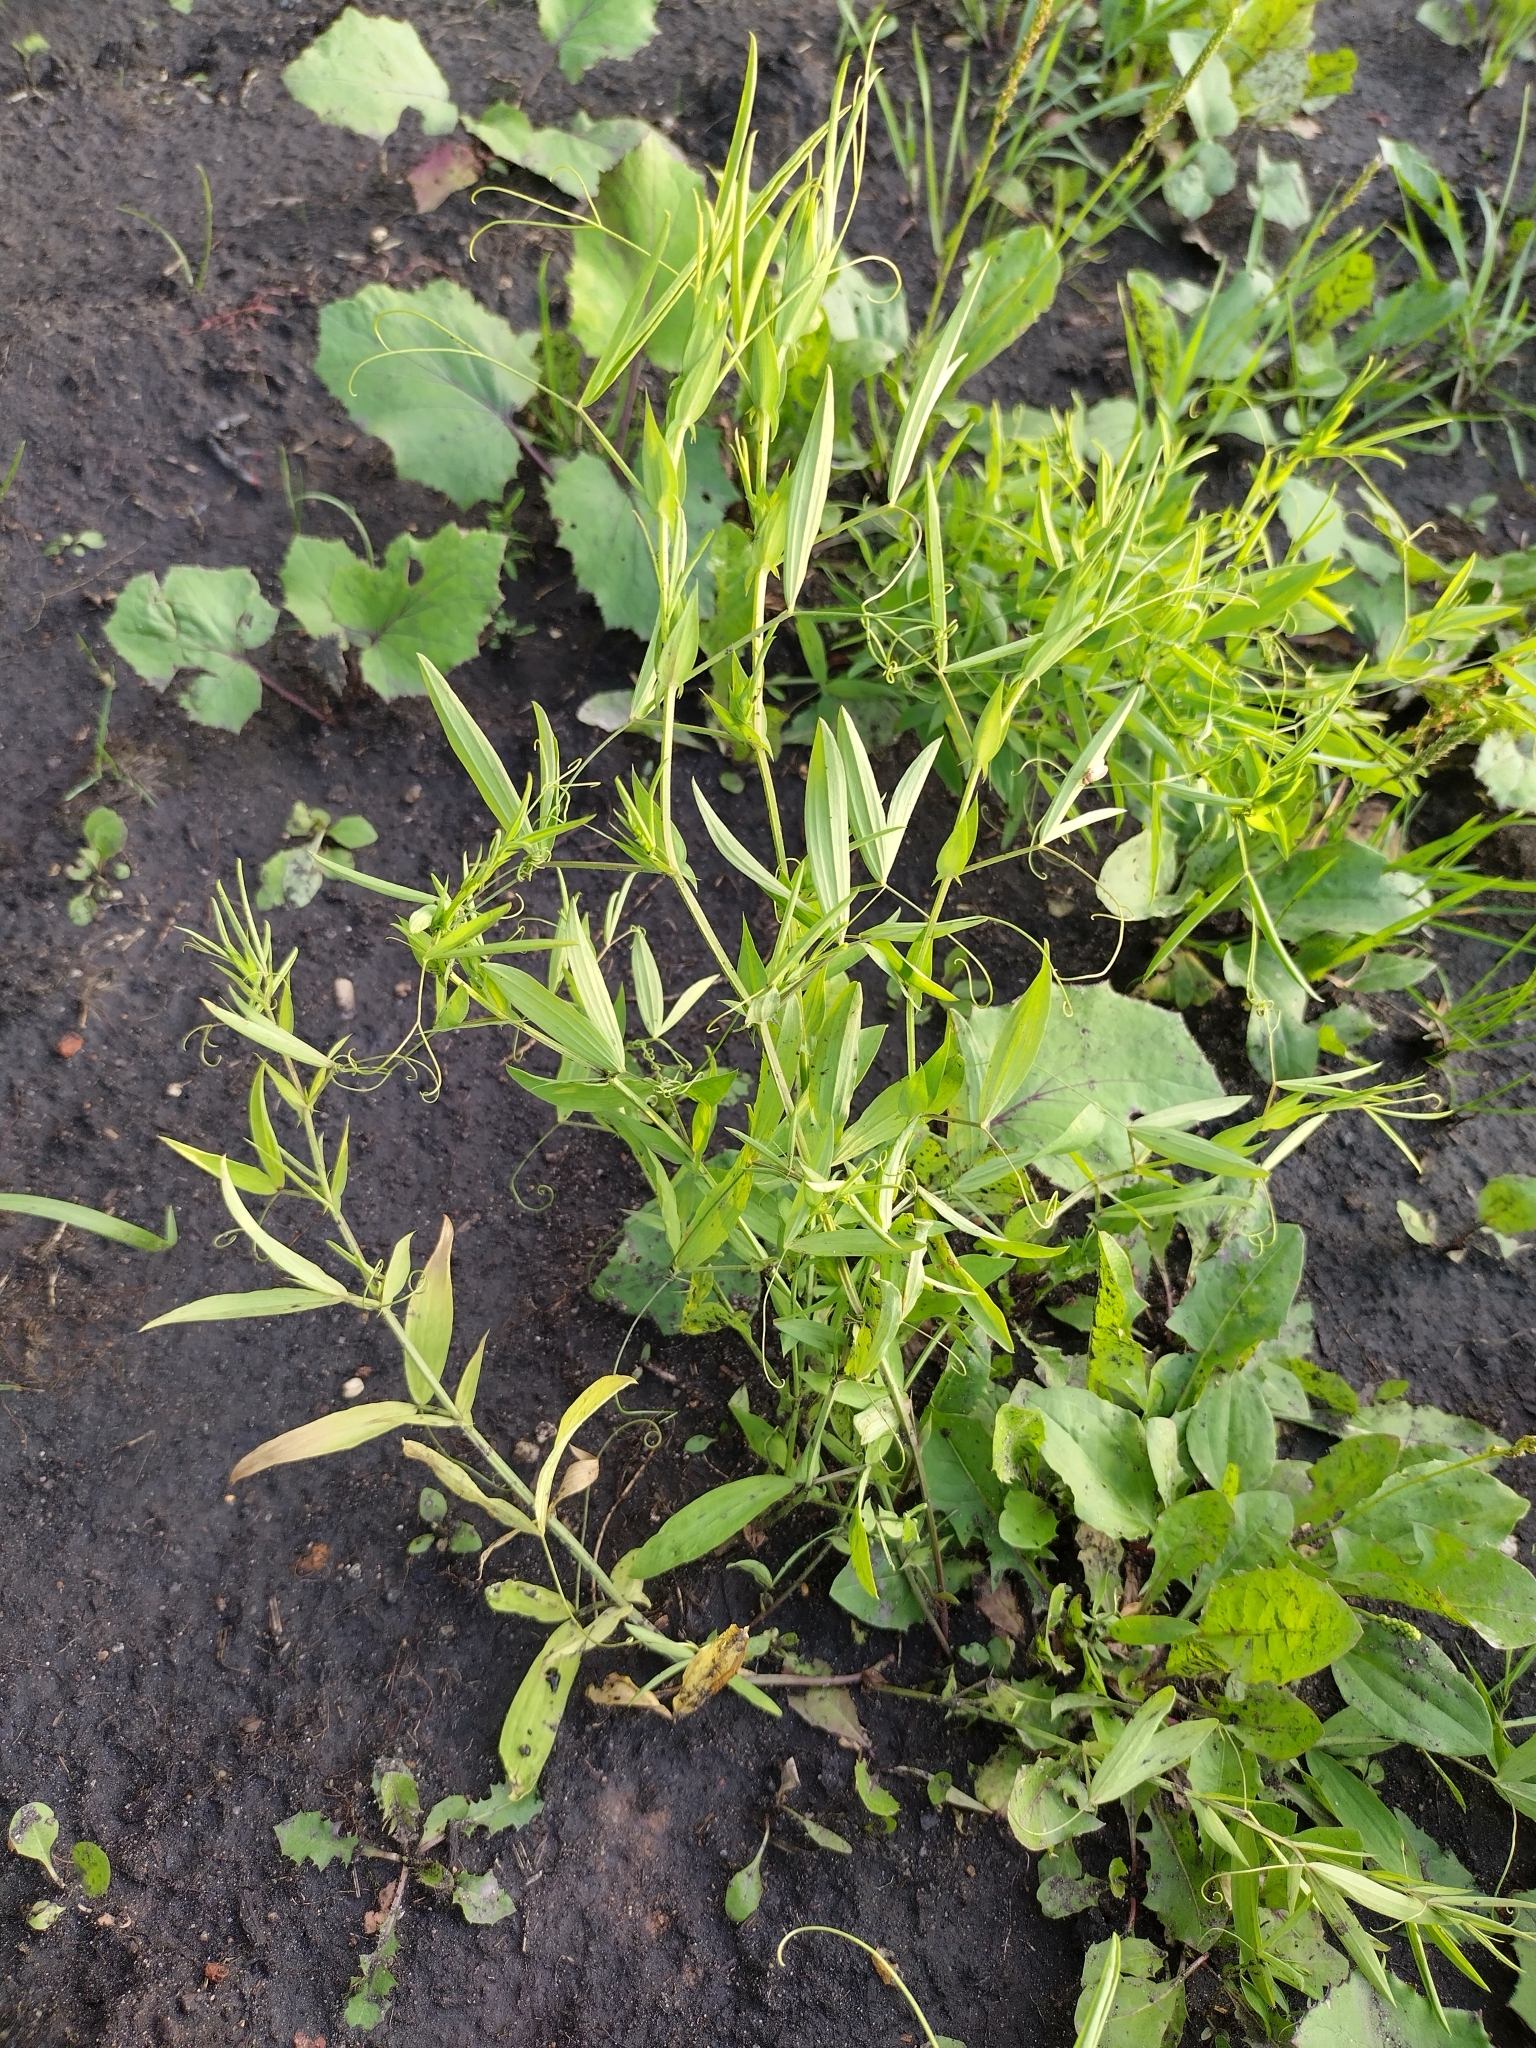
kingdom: Plantae
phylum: Tracheophyta
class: Magnoliopsida
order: Fabales
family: Fabaceae
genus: Lathyrus
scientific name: Lathyrus pratensis
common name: Meadow vetchling
